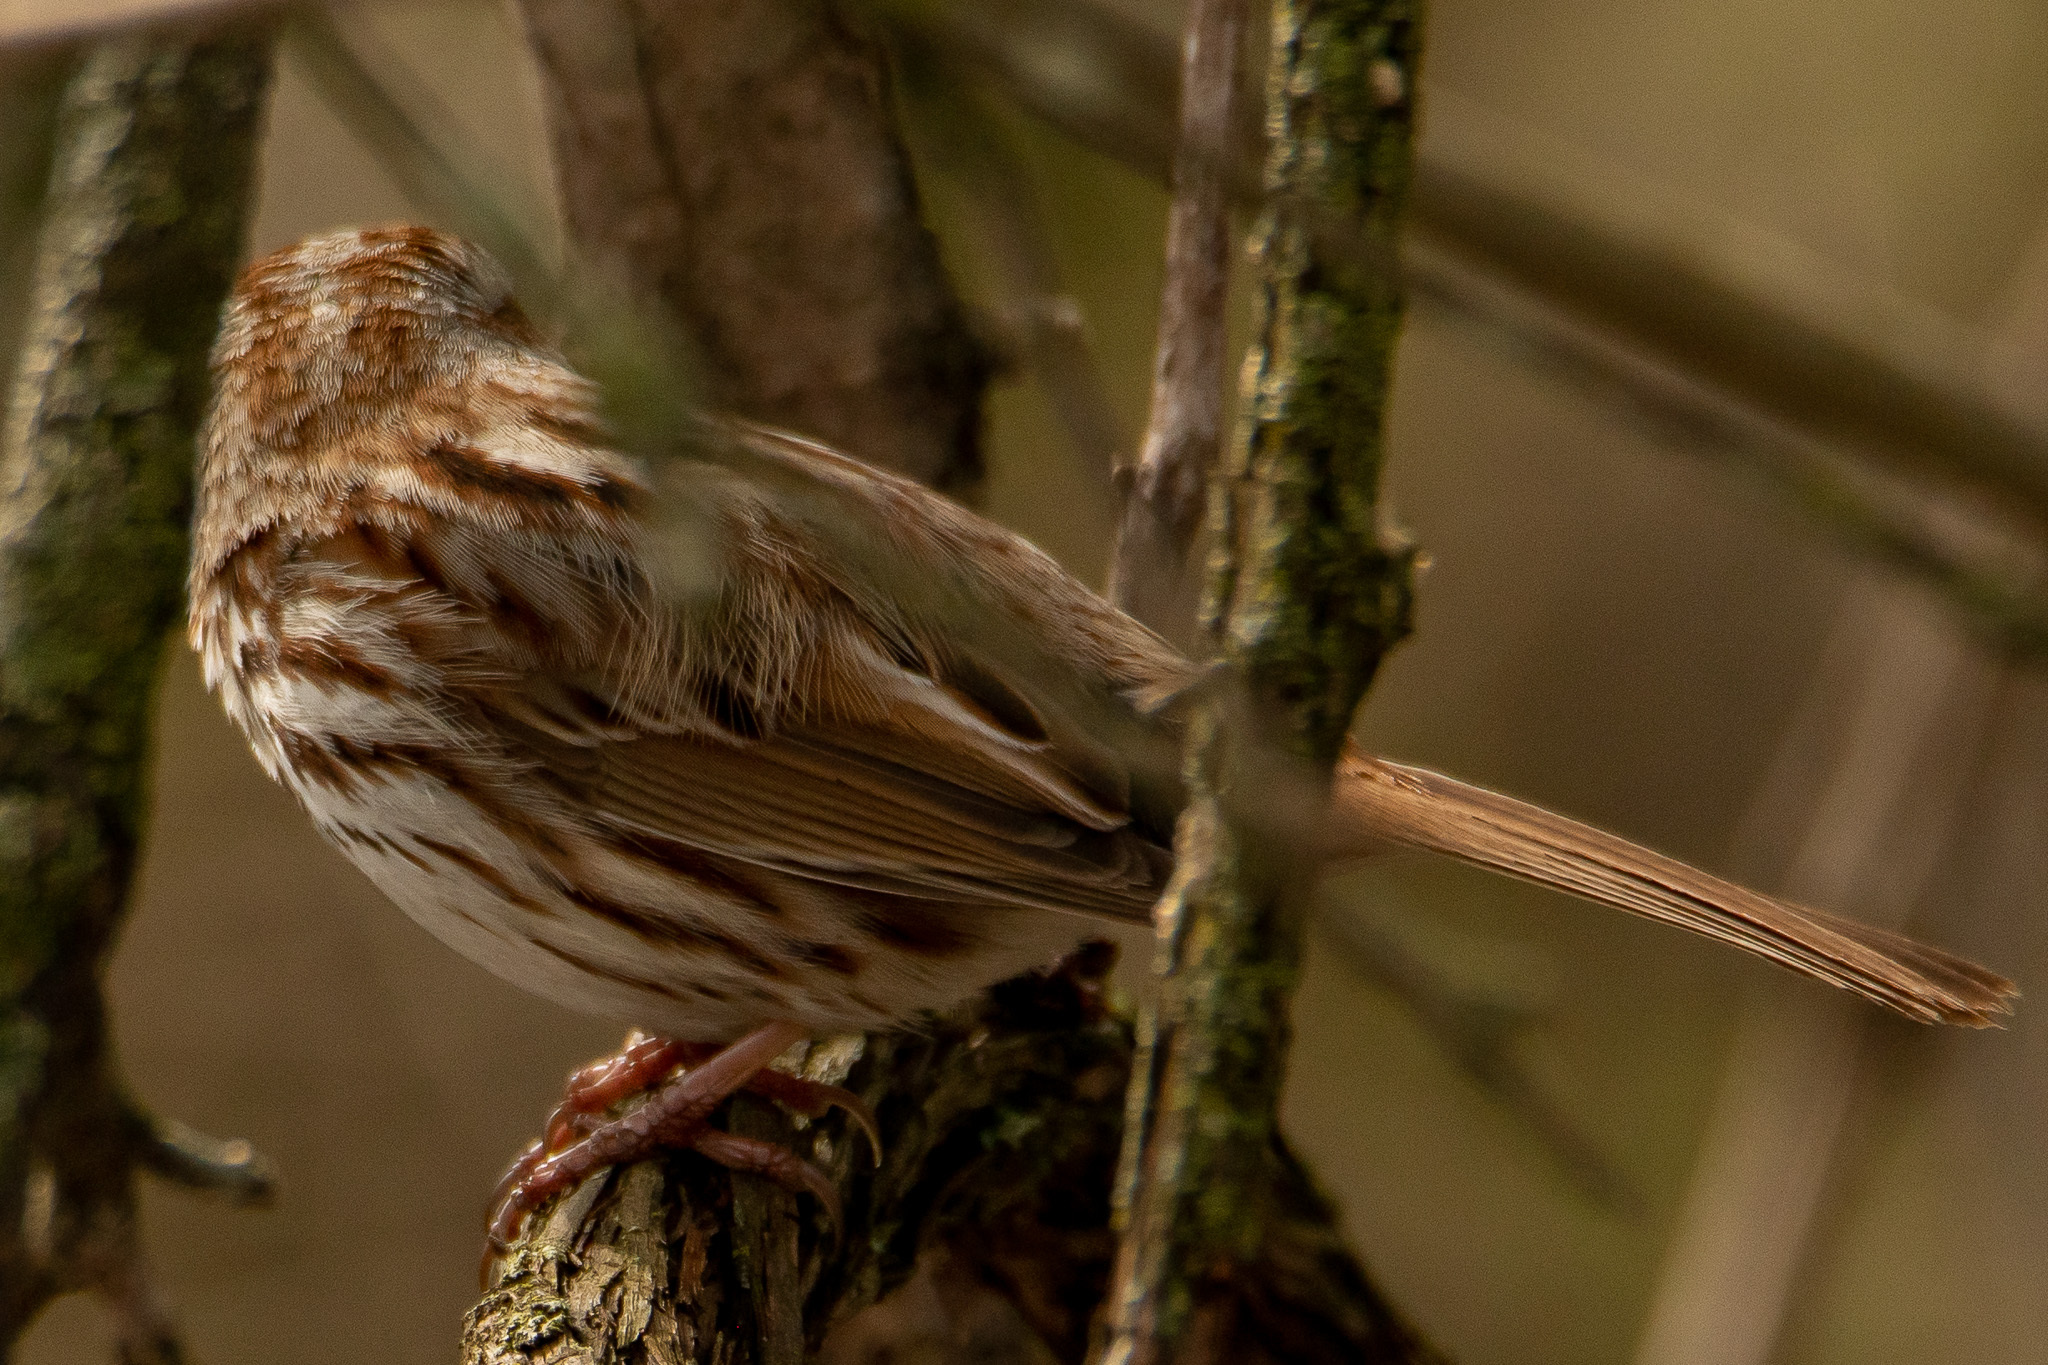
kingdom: Animalia
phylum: Chordata
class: Aves
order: Passeriformes
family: Passerellidae
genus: Melospiza
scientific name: Melospiza melodia
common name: Song sparrow
